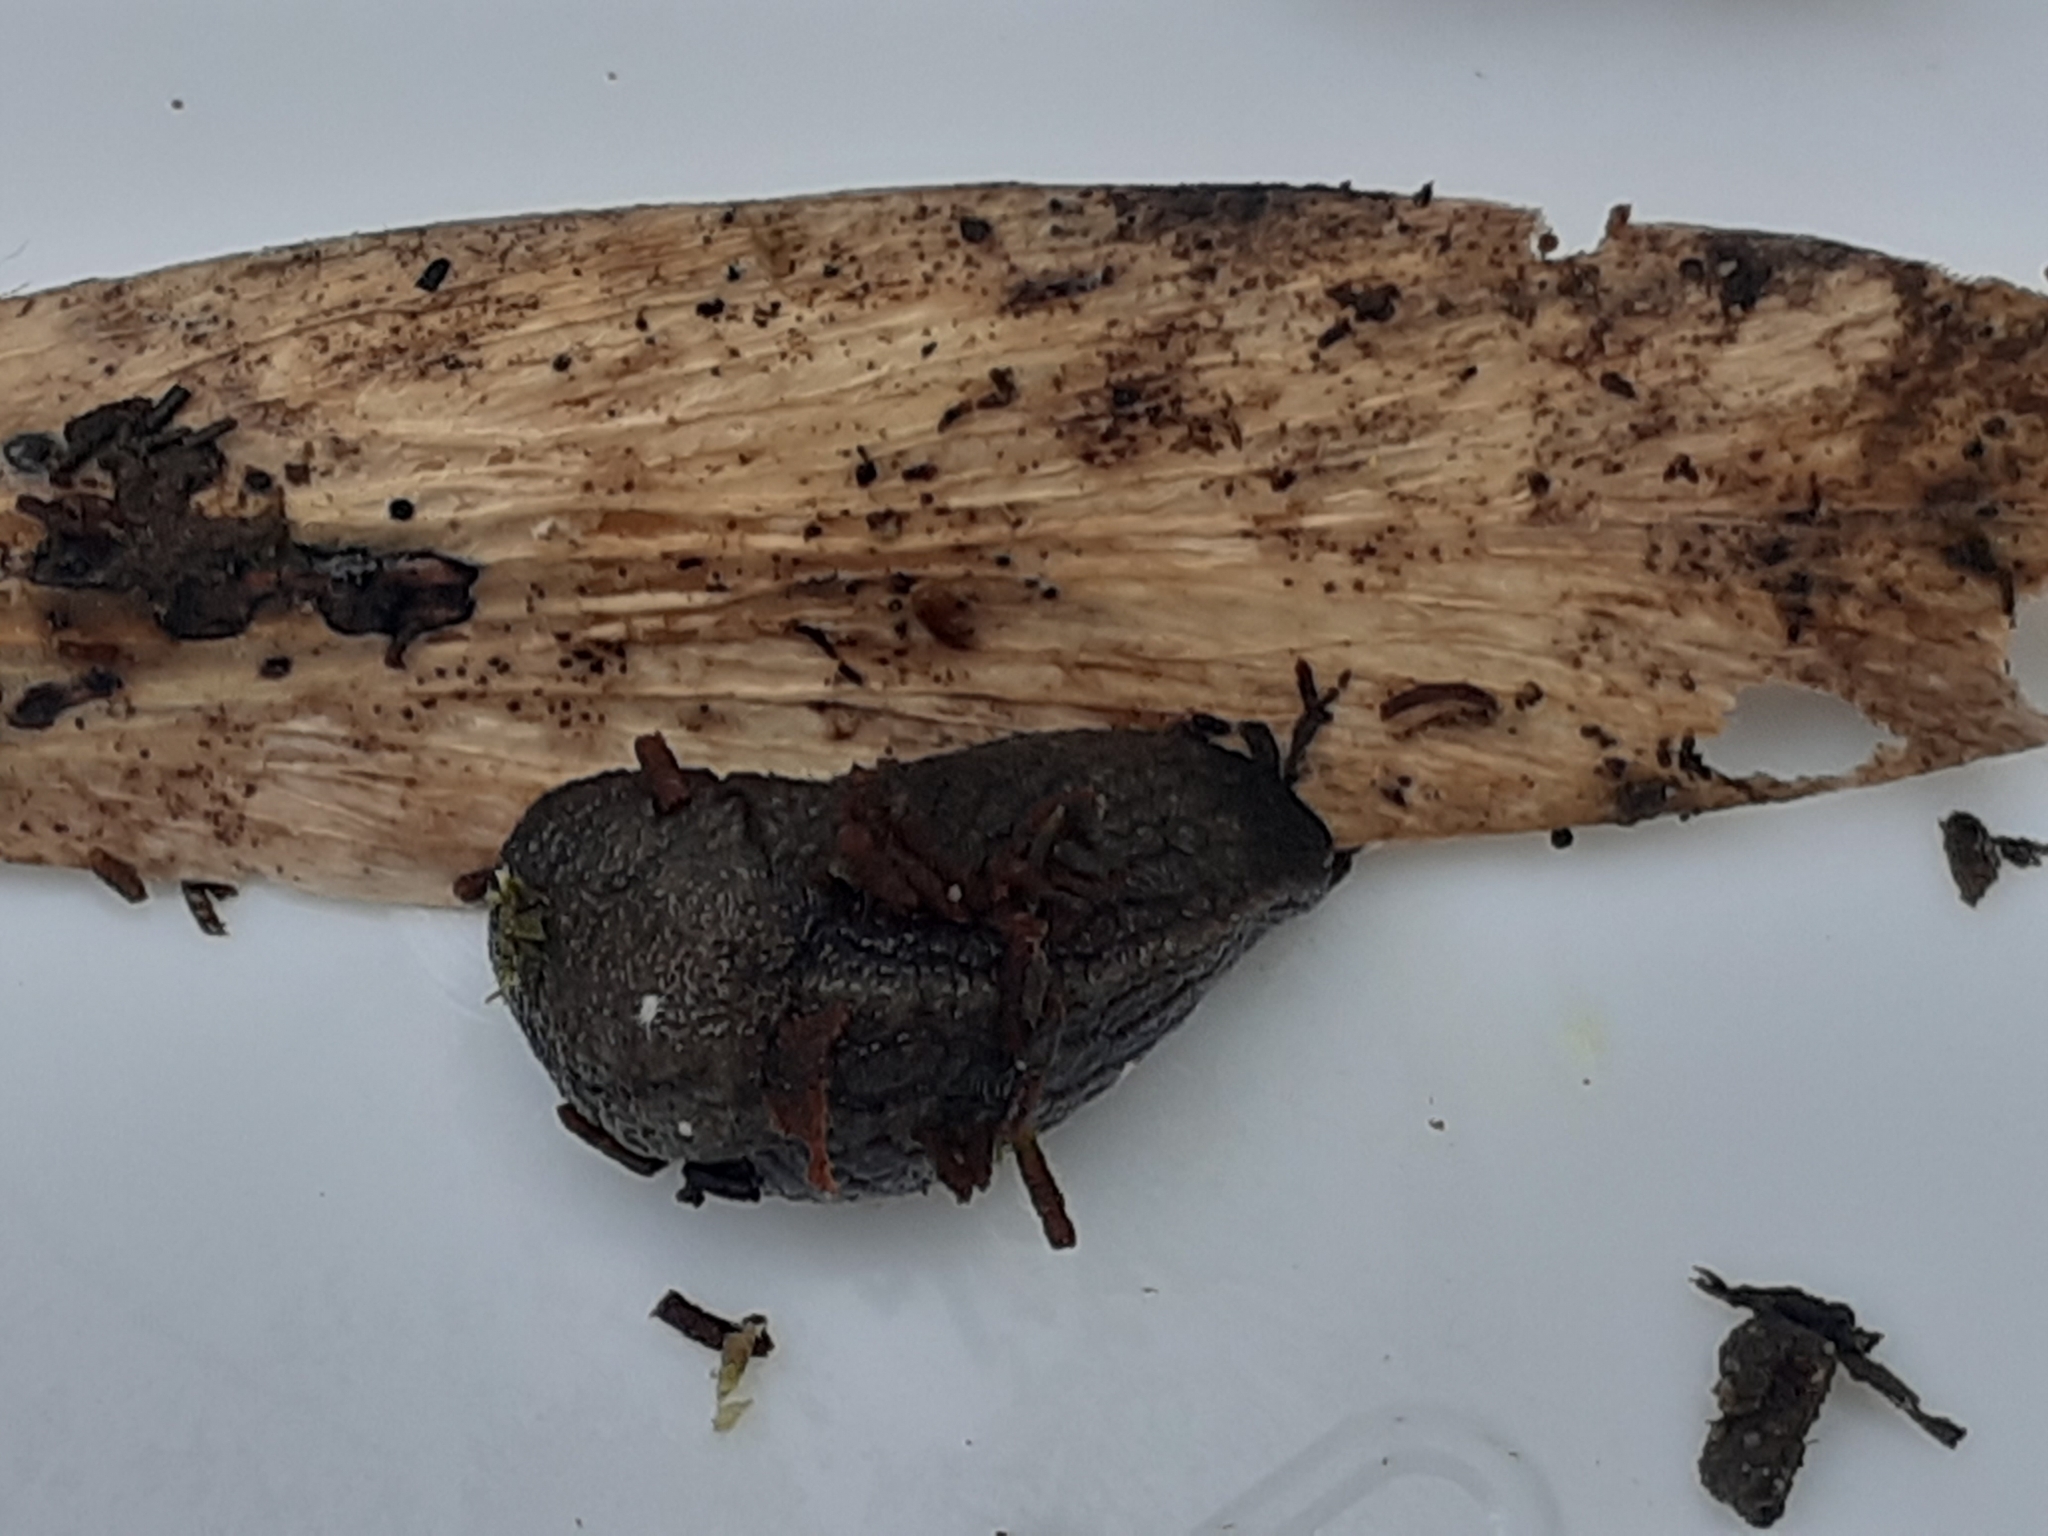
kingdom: Animalia
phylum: Mollusca
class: Gastropoda
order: Stylommatophora
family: Milacidae
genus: Tandonia
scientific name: Tandonia budapestensis
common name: Budapest slug
